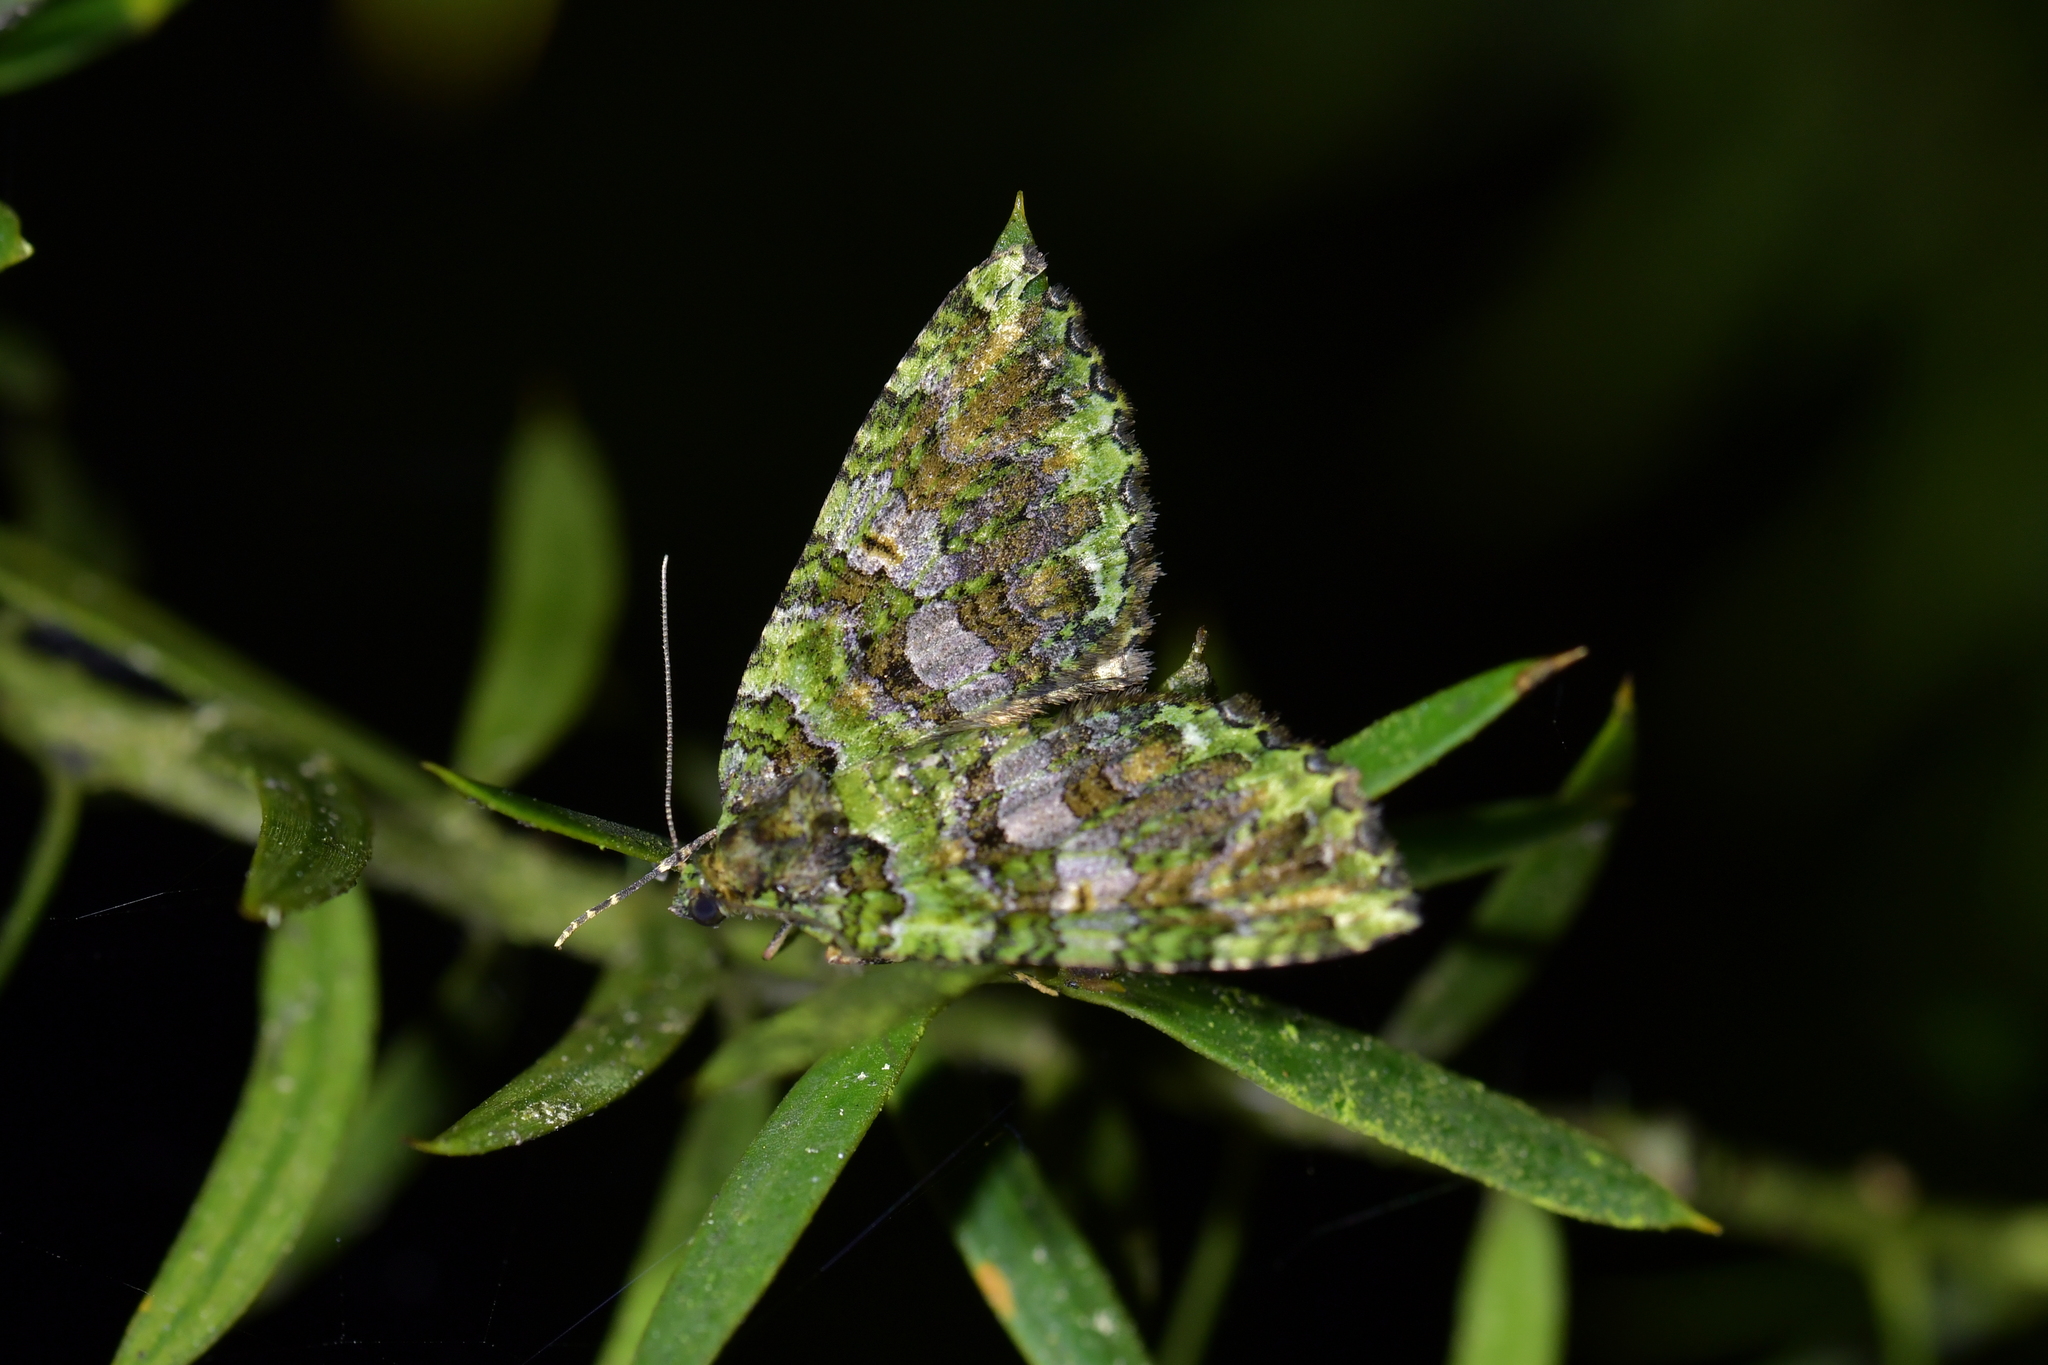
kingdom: Animalia
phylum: Arthropoda
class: Insecta
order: Lepidoptera
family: Geometridae
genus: Austrocidaria
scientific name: Austrocidaria similata
